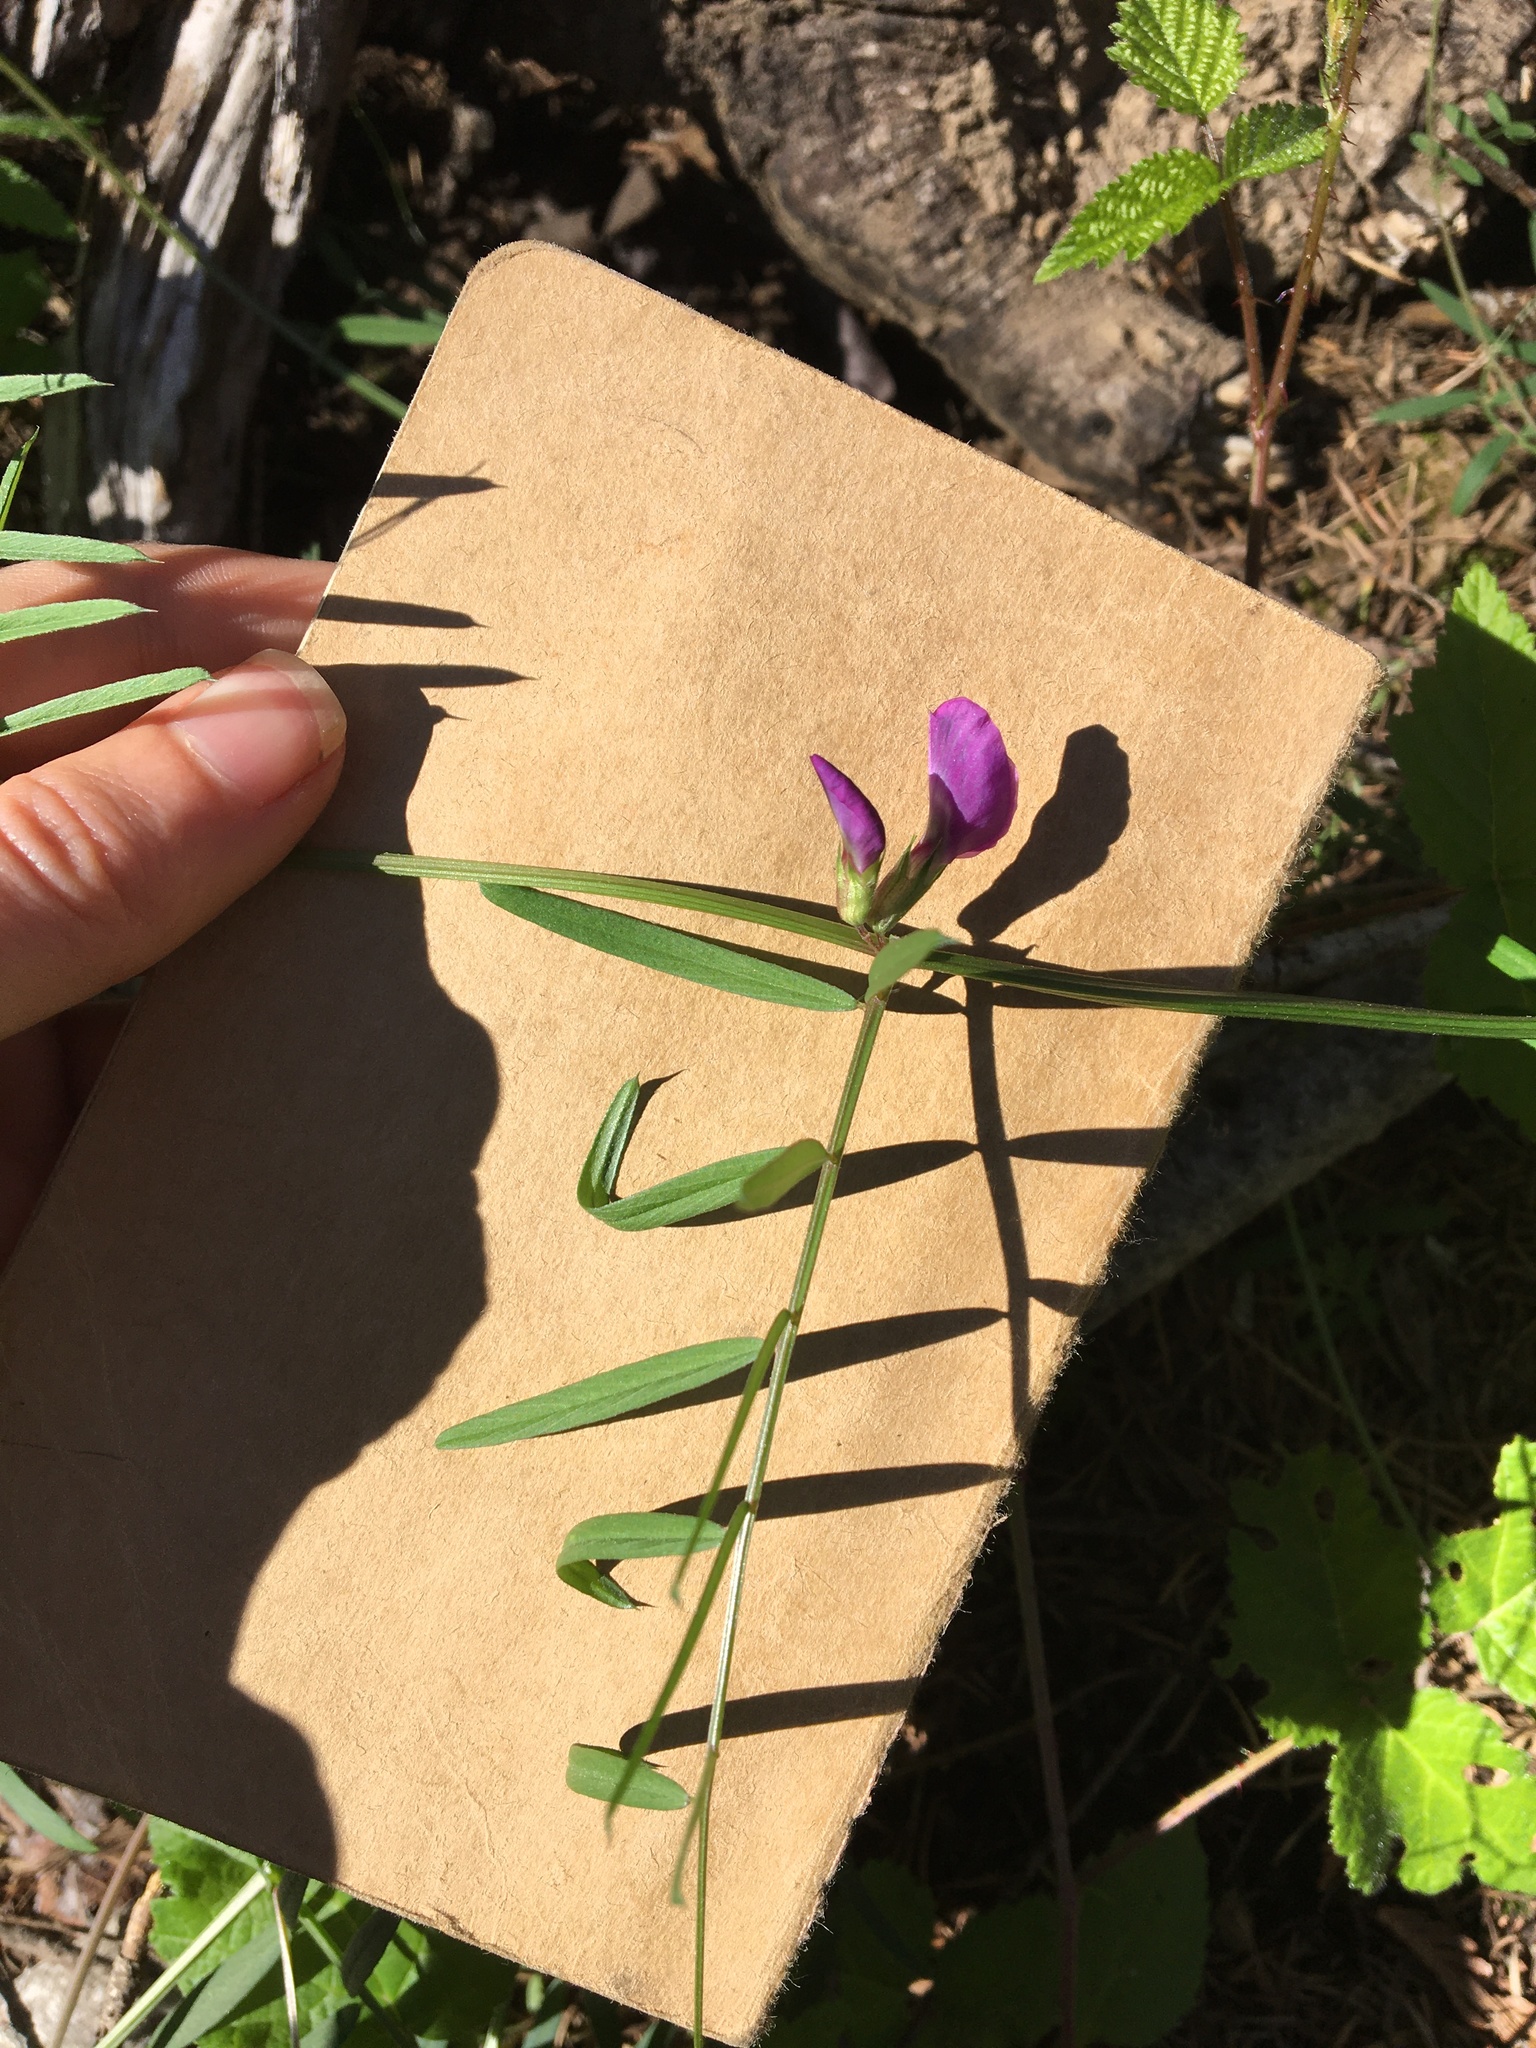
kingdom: Plantae
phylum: Tracheophyta
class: Magnoliopsida
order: Fabales
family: Fabaceae
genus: Vicia
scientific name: Vicia sativa
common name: Garden vetch
